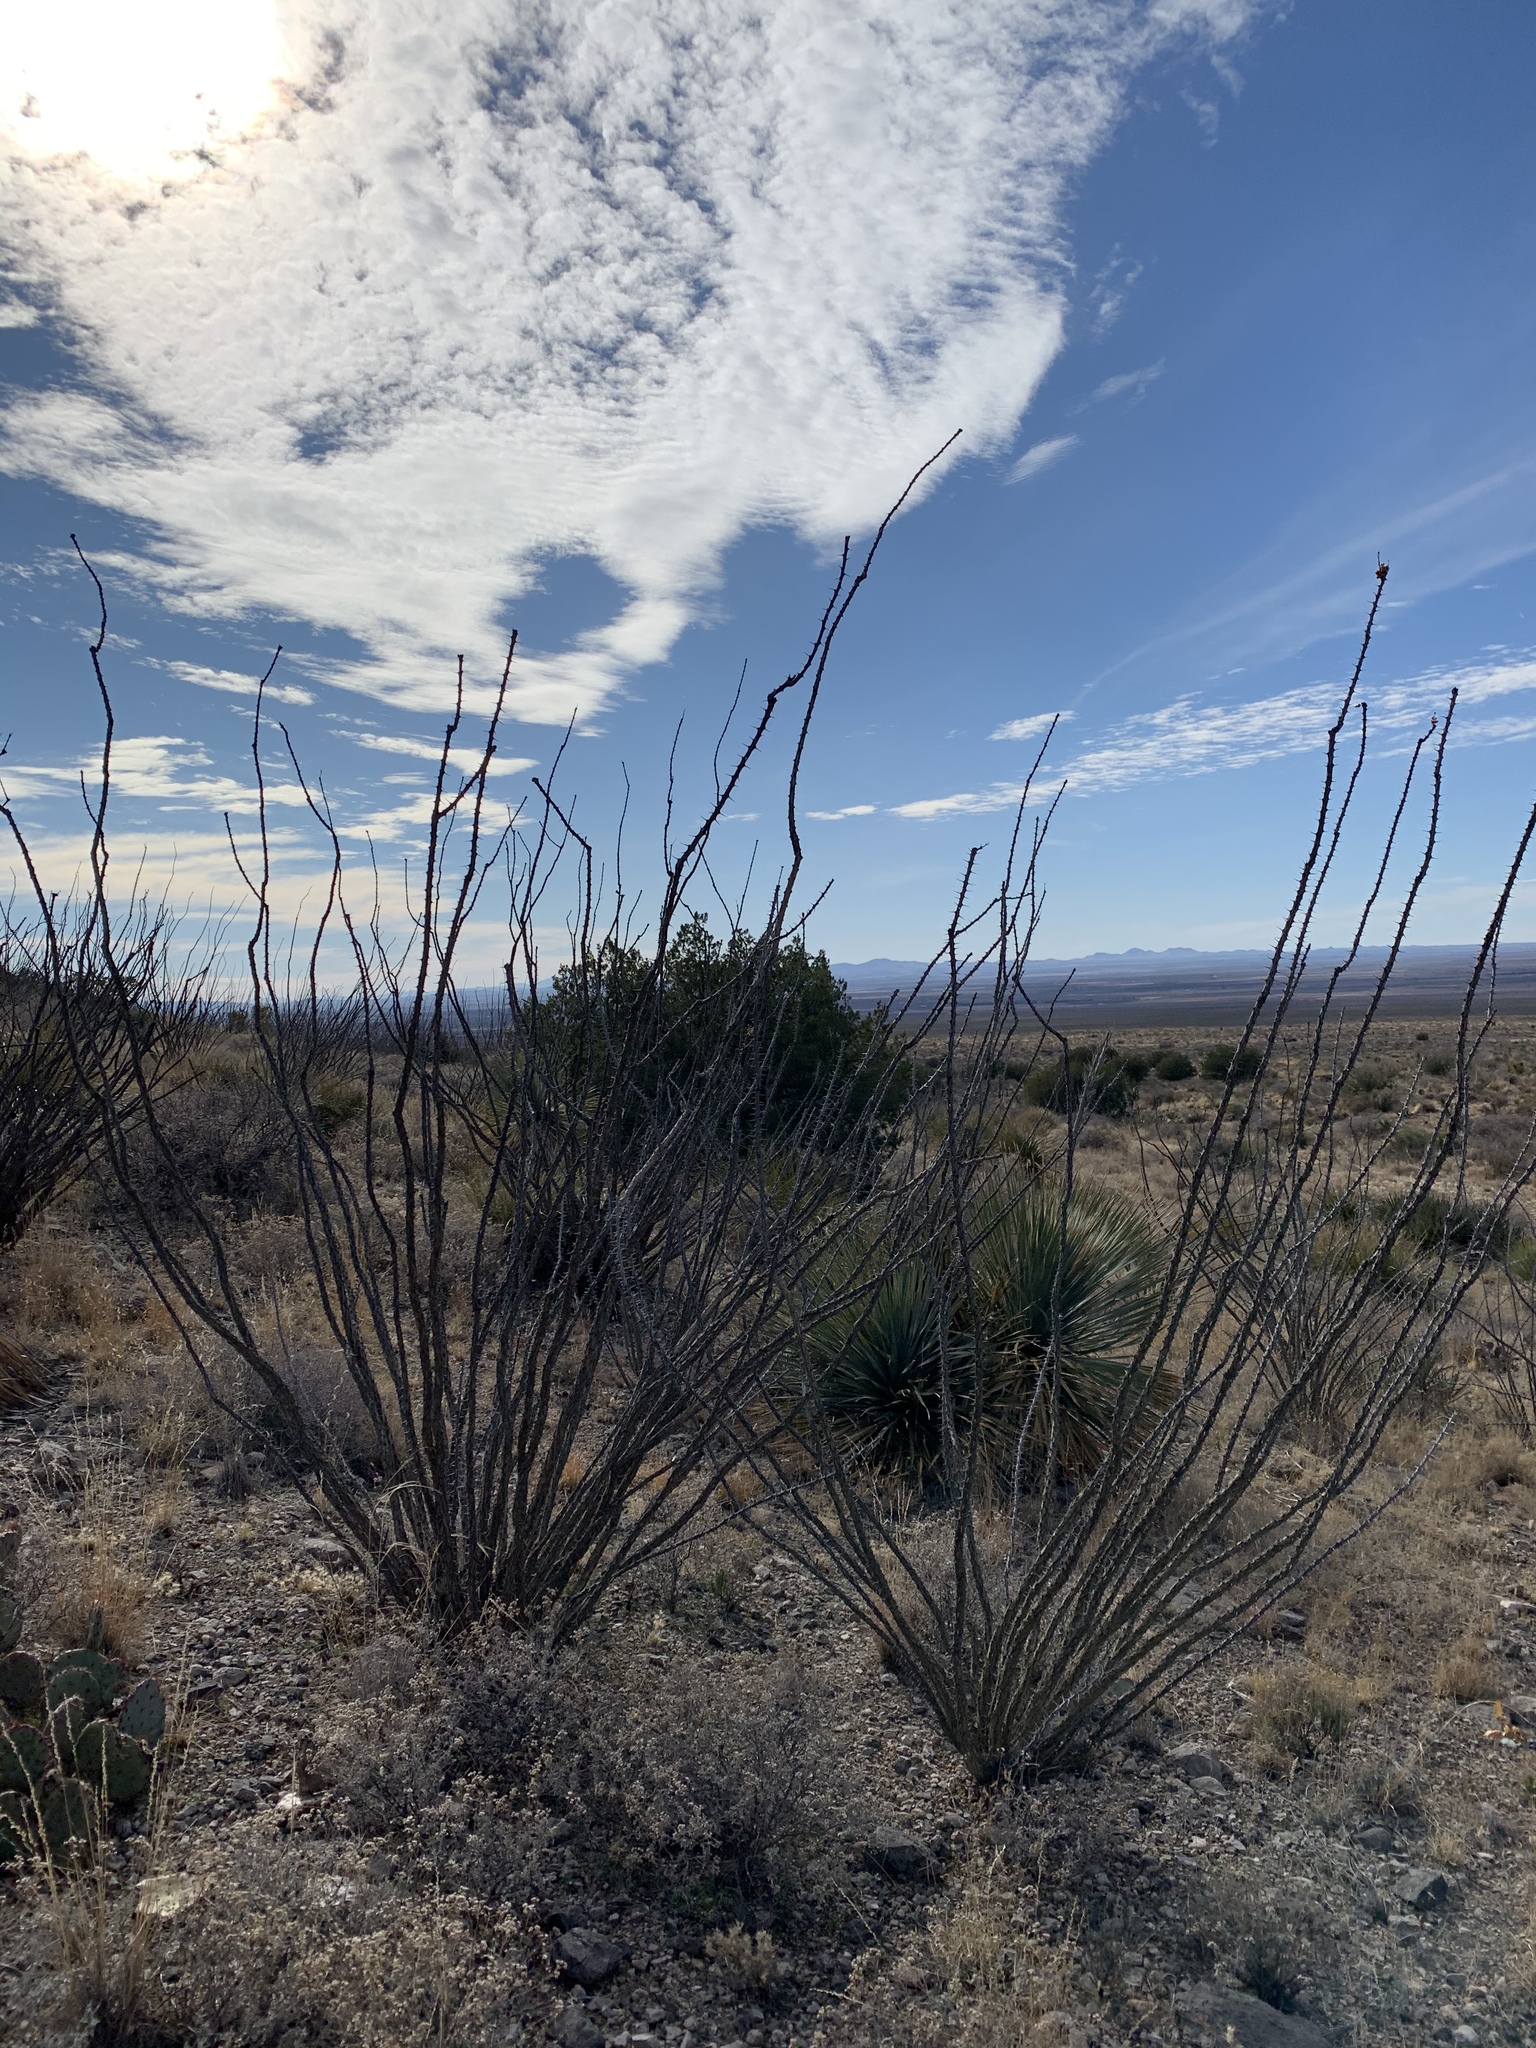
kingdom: Plantae
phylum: Tracheophyta
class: Magnoliopsida
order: Ericales
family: Fouquieriaceae
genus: Fouquieria
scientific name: Fouquieria splendens
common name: Vine-cactus
